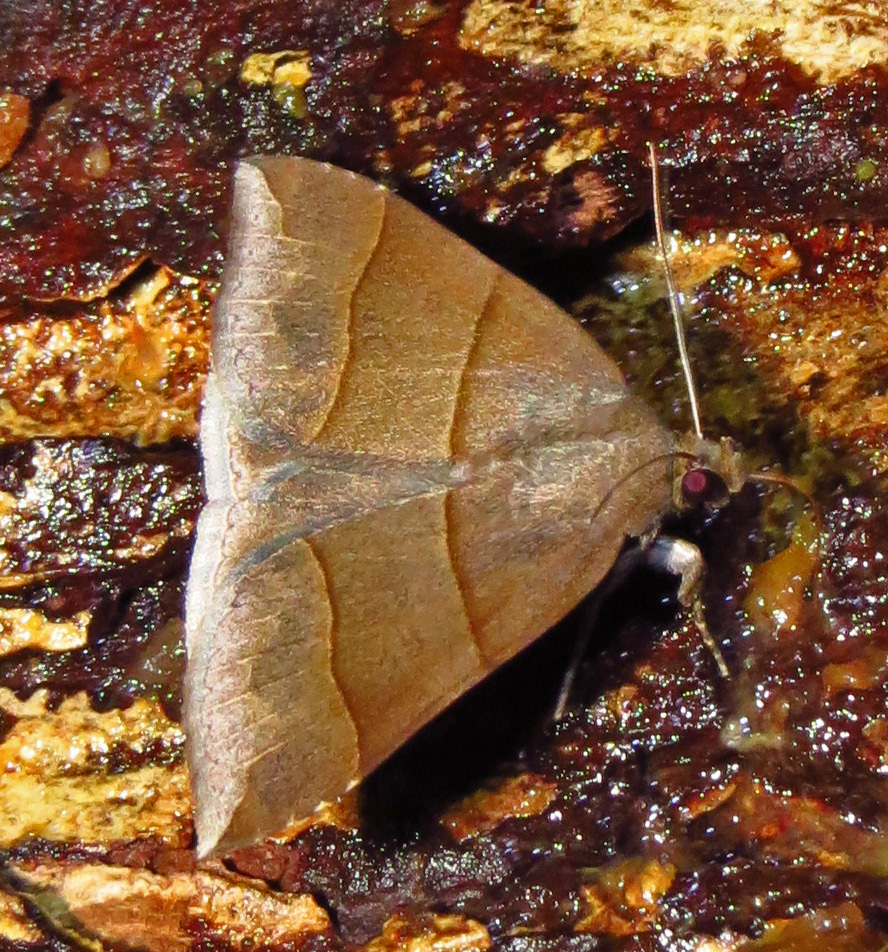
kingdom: Animalia
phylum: Arthropoda
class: Insecta
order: Lepidoptera
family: Erebidae
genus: Parallelia
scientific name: Parallelia bistriaris
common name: Maple looper moth
